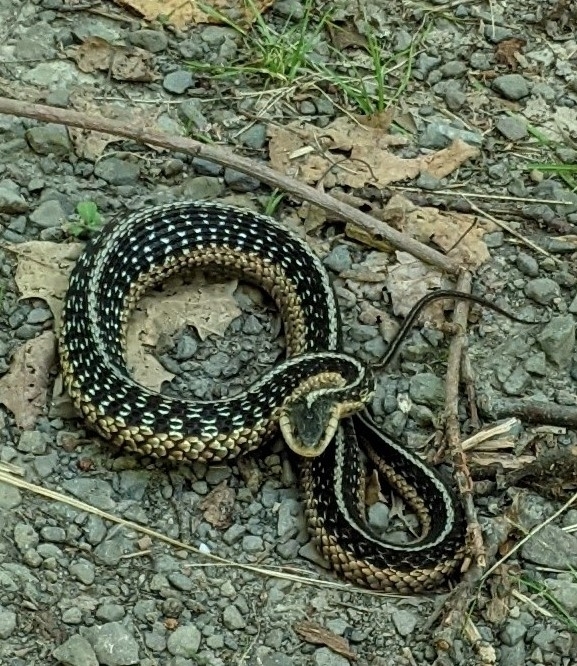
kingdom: Animalia
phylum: Chordata
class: Squamata
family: Colubridae
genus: Thamnophis
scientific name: Thamnophis sirtalis
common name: Common garter snake
